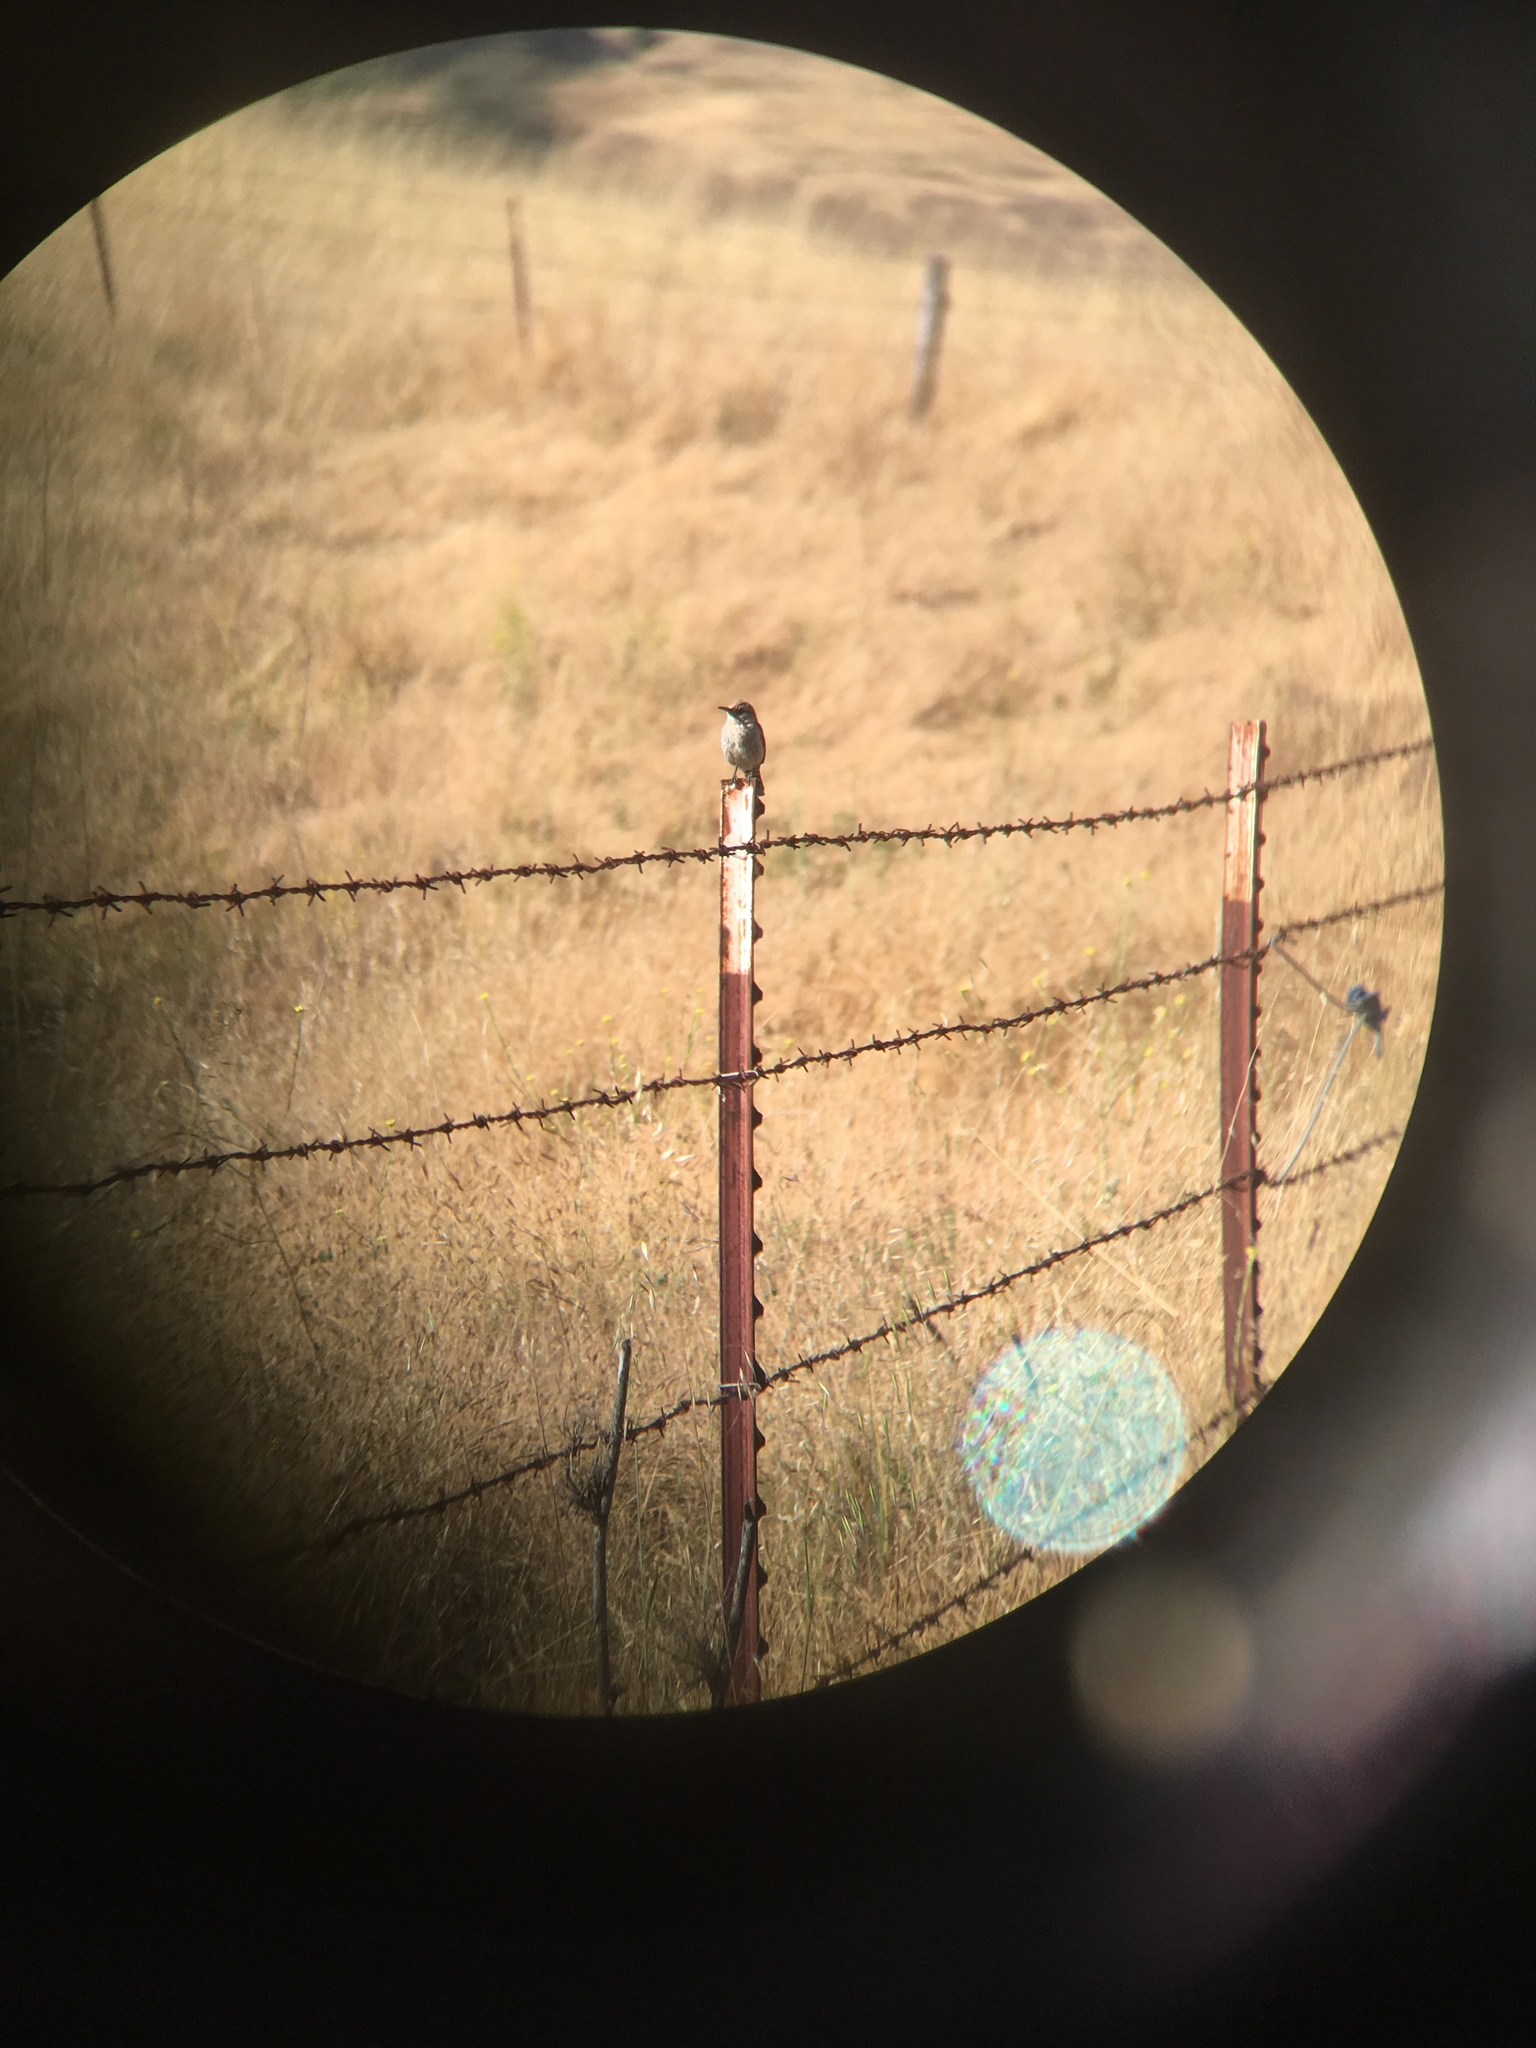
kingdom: Animalia
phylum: Chordata
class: Aves
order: Passeriformes
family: Troglodytidae
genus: Salpinctes
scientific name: Salpinctes obsoletus
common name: Rock wren
